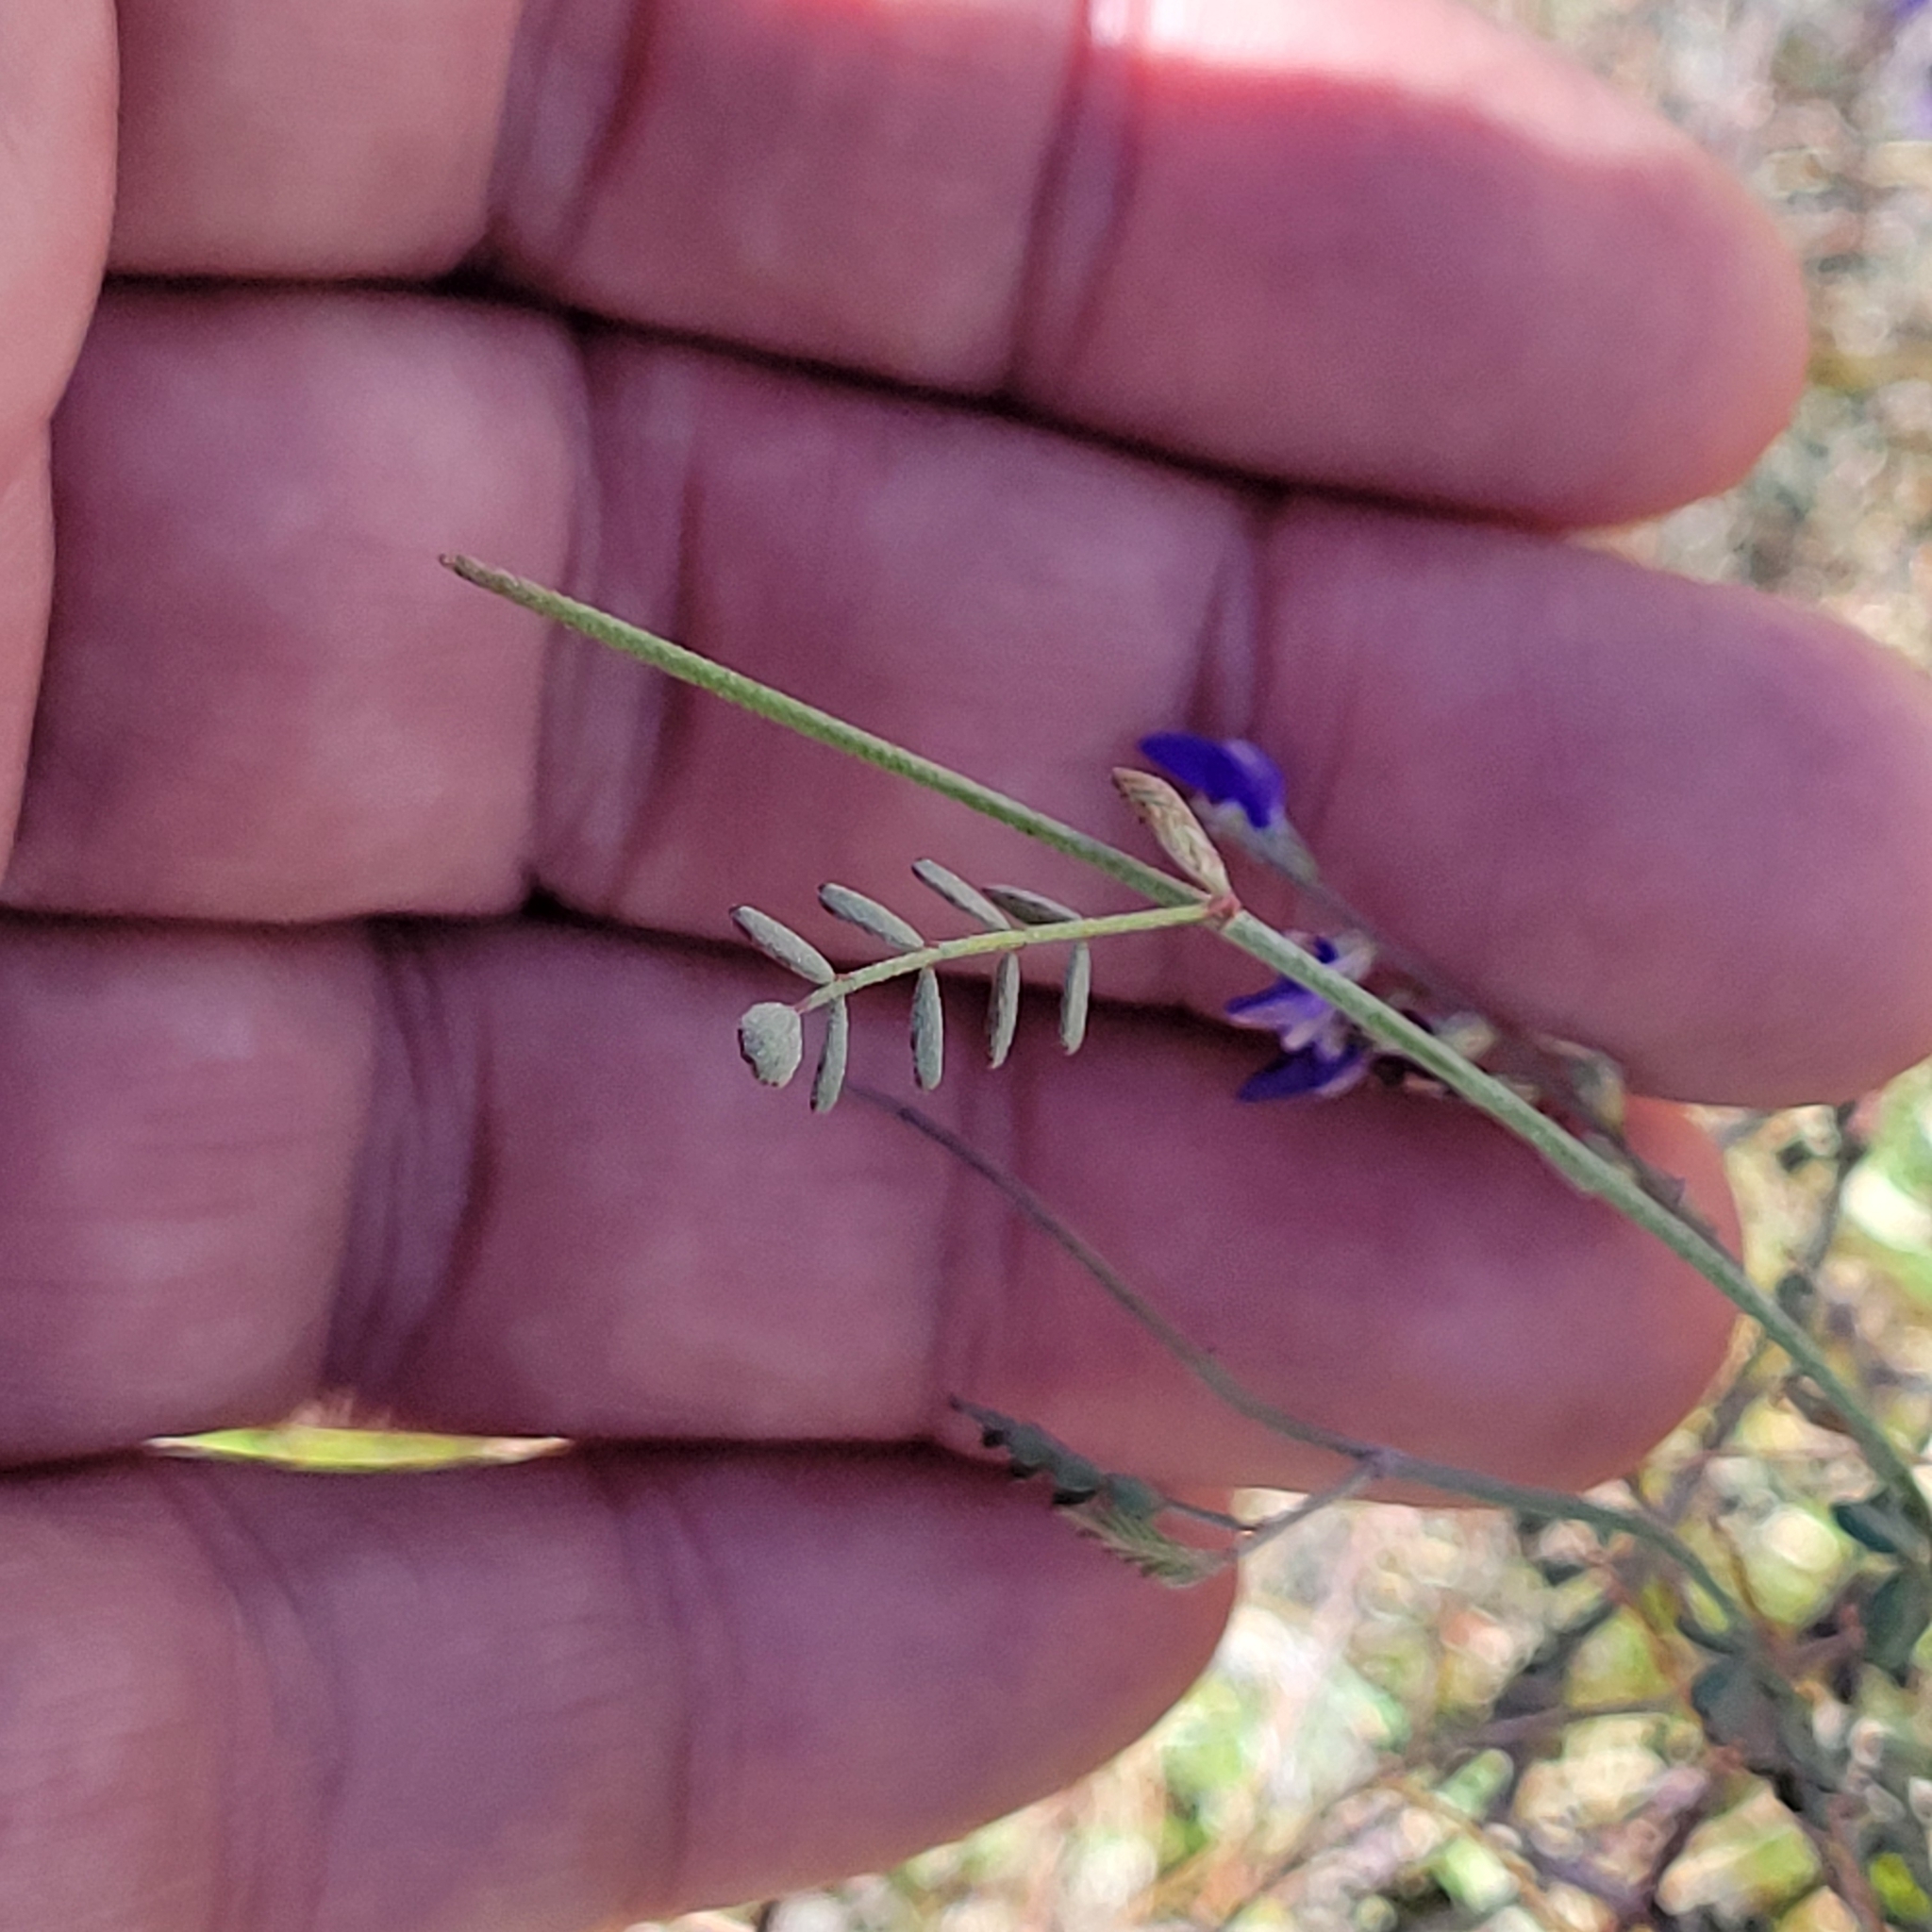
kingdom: Plantae
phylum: Tracheophyta
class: Magnoliopsida
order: Fabales
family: Fabaceae
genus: Marina
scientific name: Marina parryi
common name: Parry's marina
